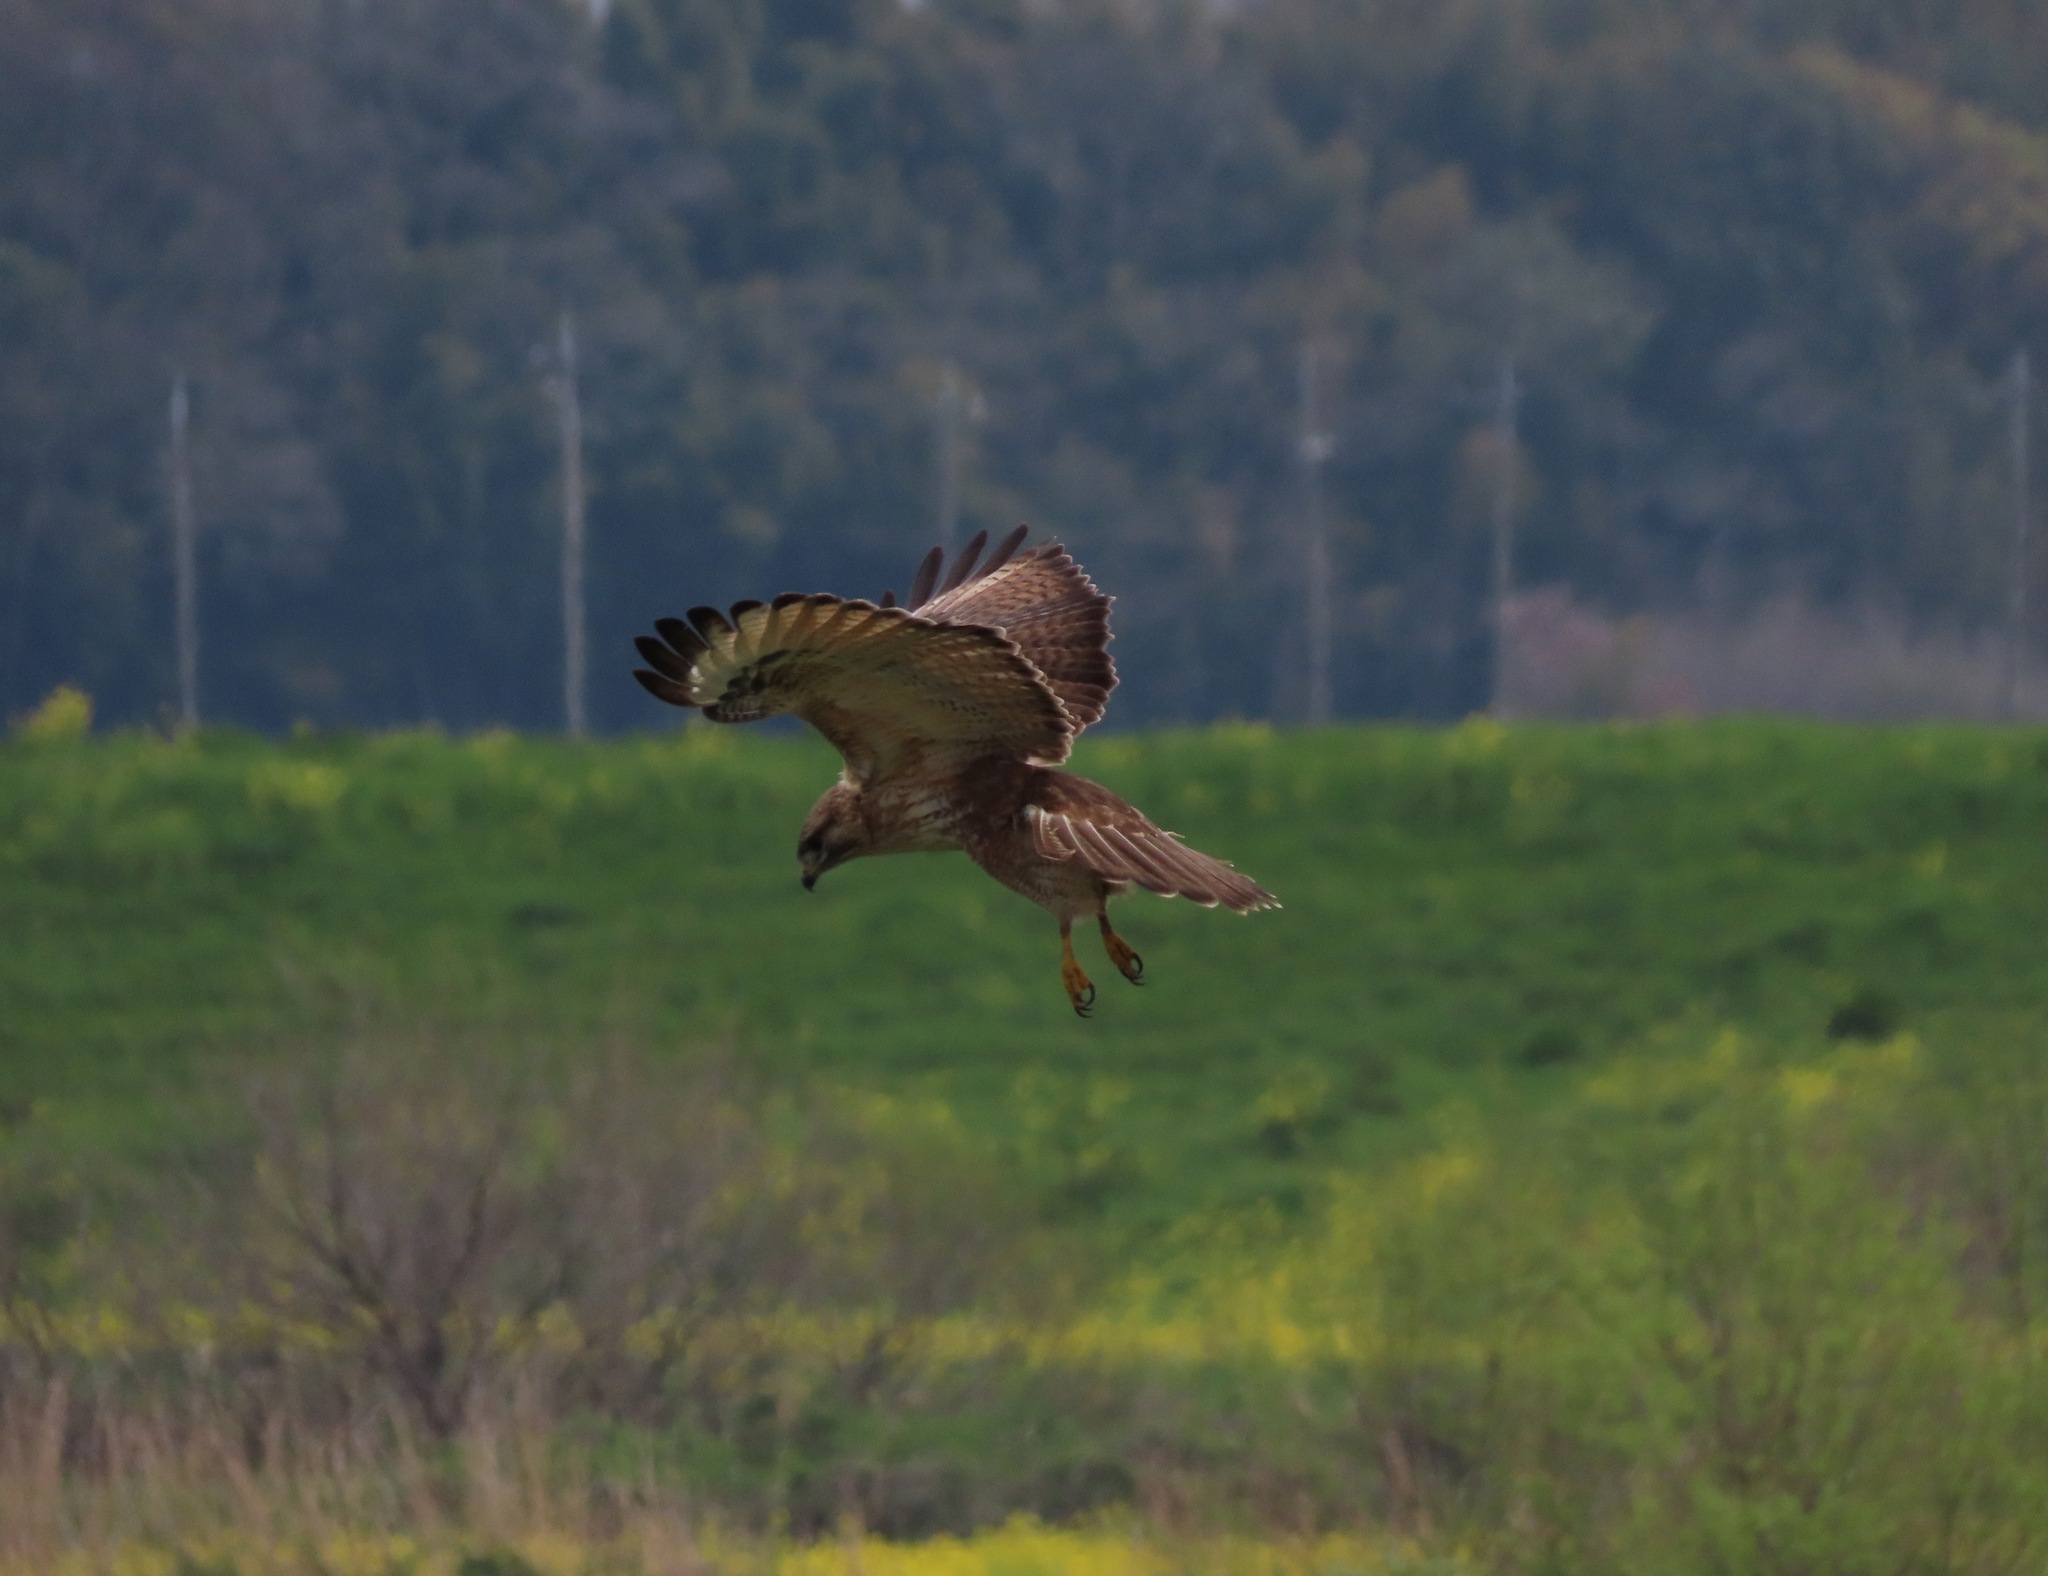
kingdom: Animalia
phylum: Chordata
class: Aves
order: Accipitriformes
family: Accipitridae
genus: Buteo
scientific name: Buteo japonicus
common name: Eastern buzzard
